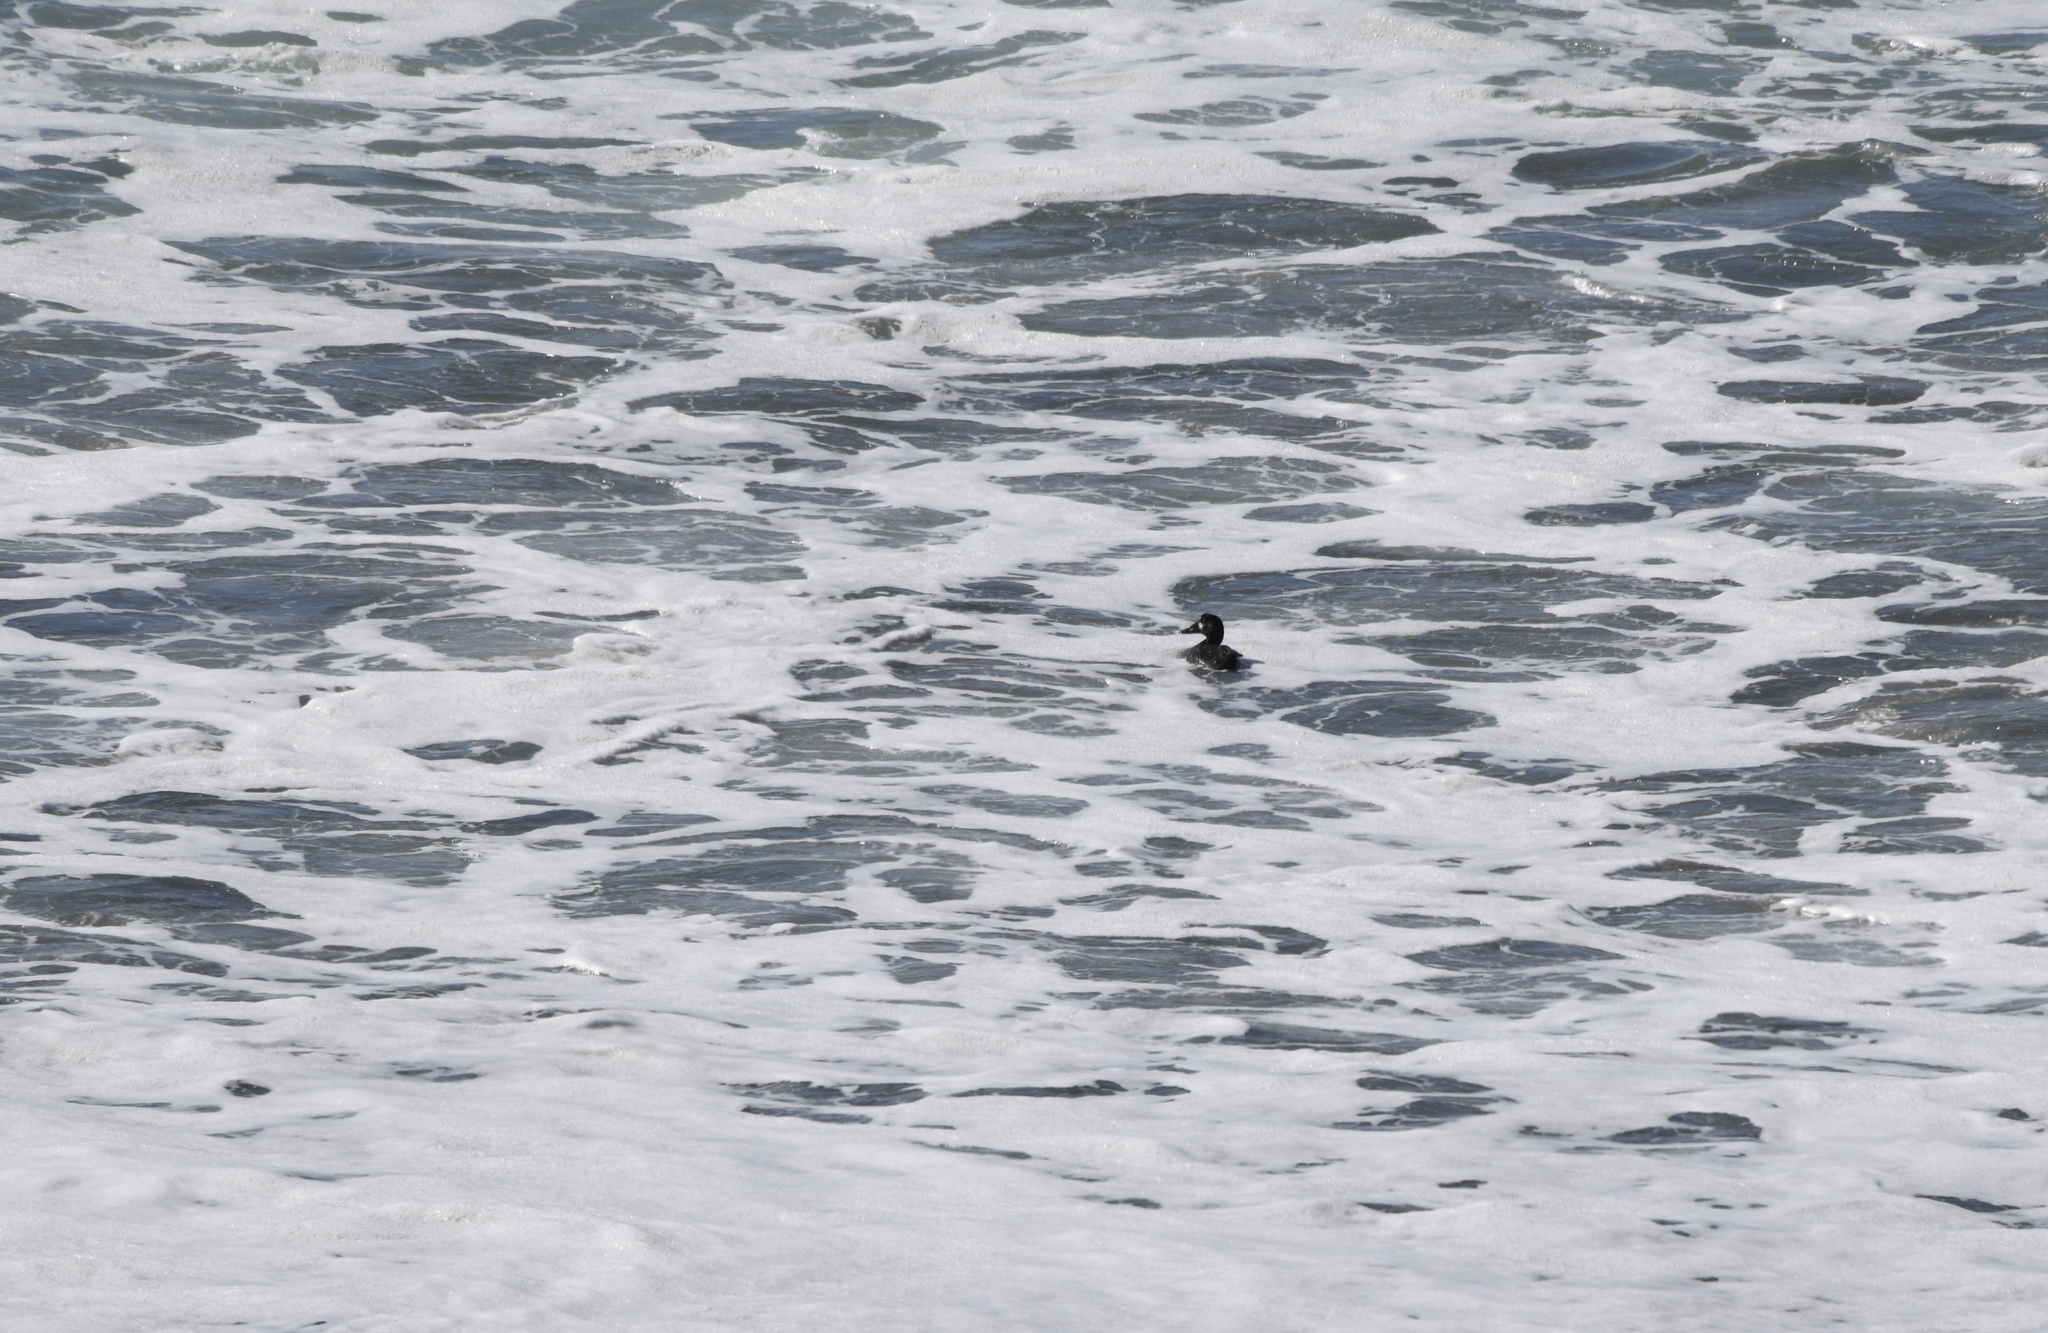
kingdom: Animalia
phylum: Chordata
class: Aves
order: Anseriformes
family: Anatidae
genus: Melanitta
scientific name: Melanitta perspicillata
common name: Surf scoter
